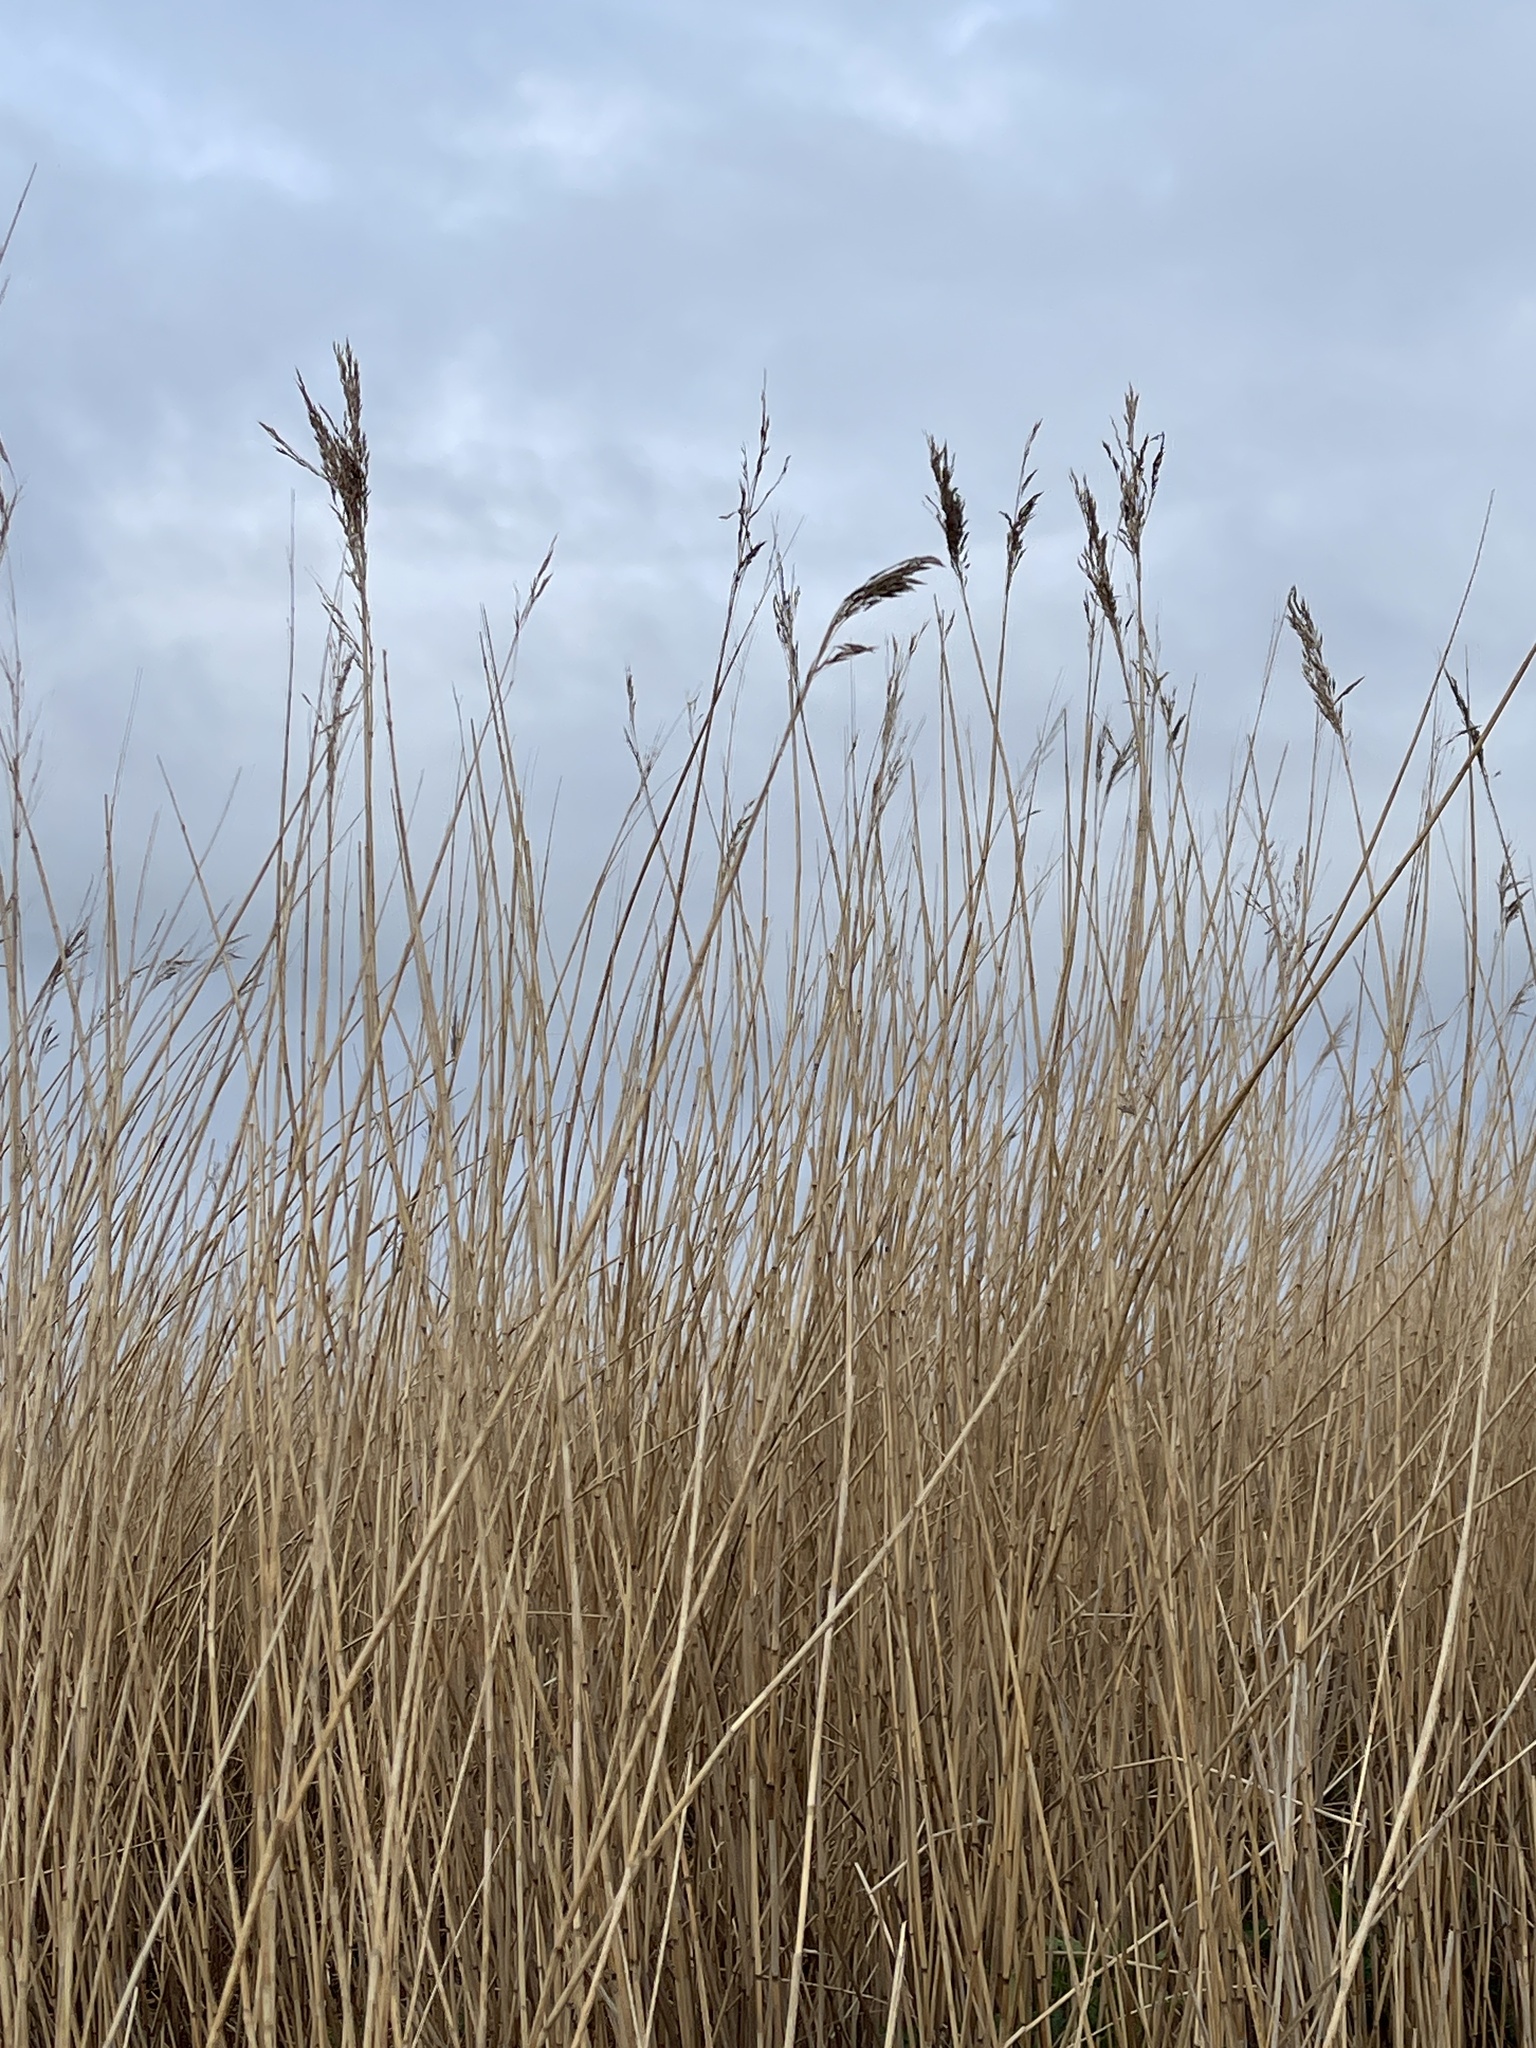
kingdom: Plantae
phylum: Tracheophyta
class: Liliopsida
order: Poales
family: Poaceae
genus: Phragmites
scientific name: Phragmites australis
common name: Common reed
